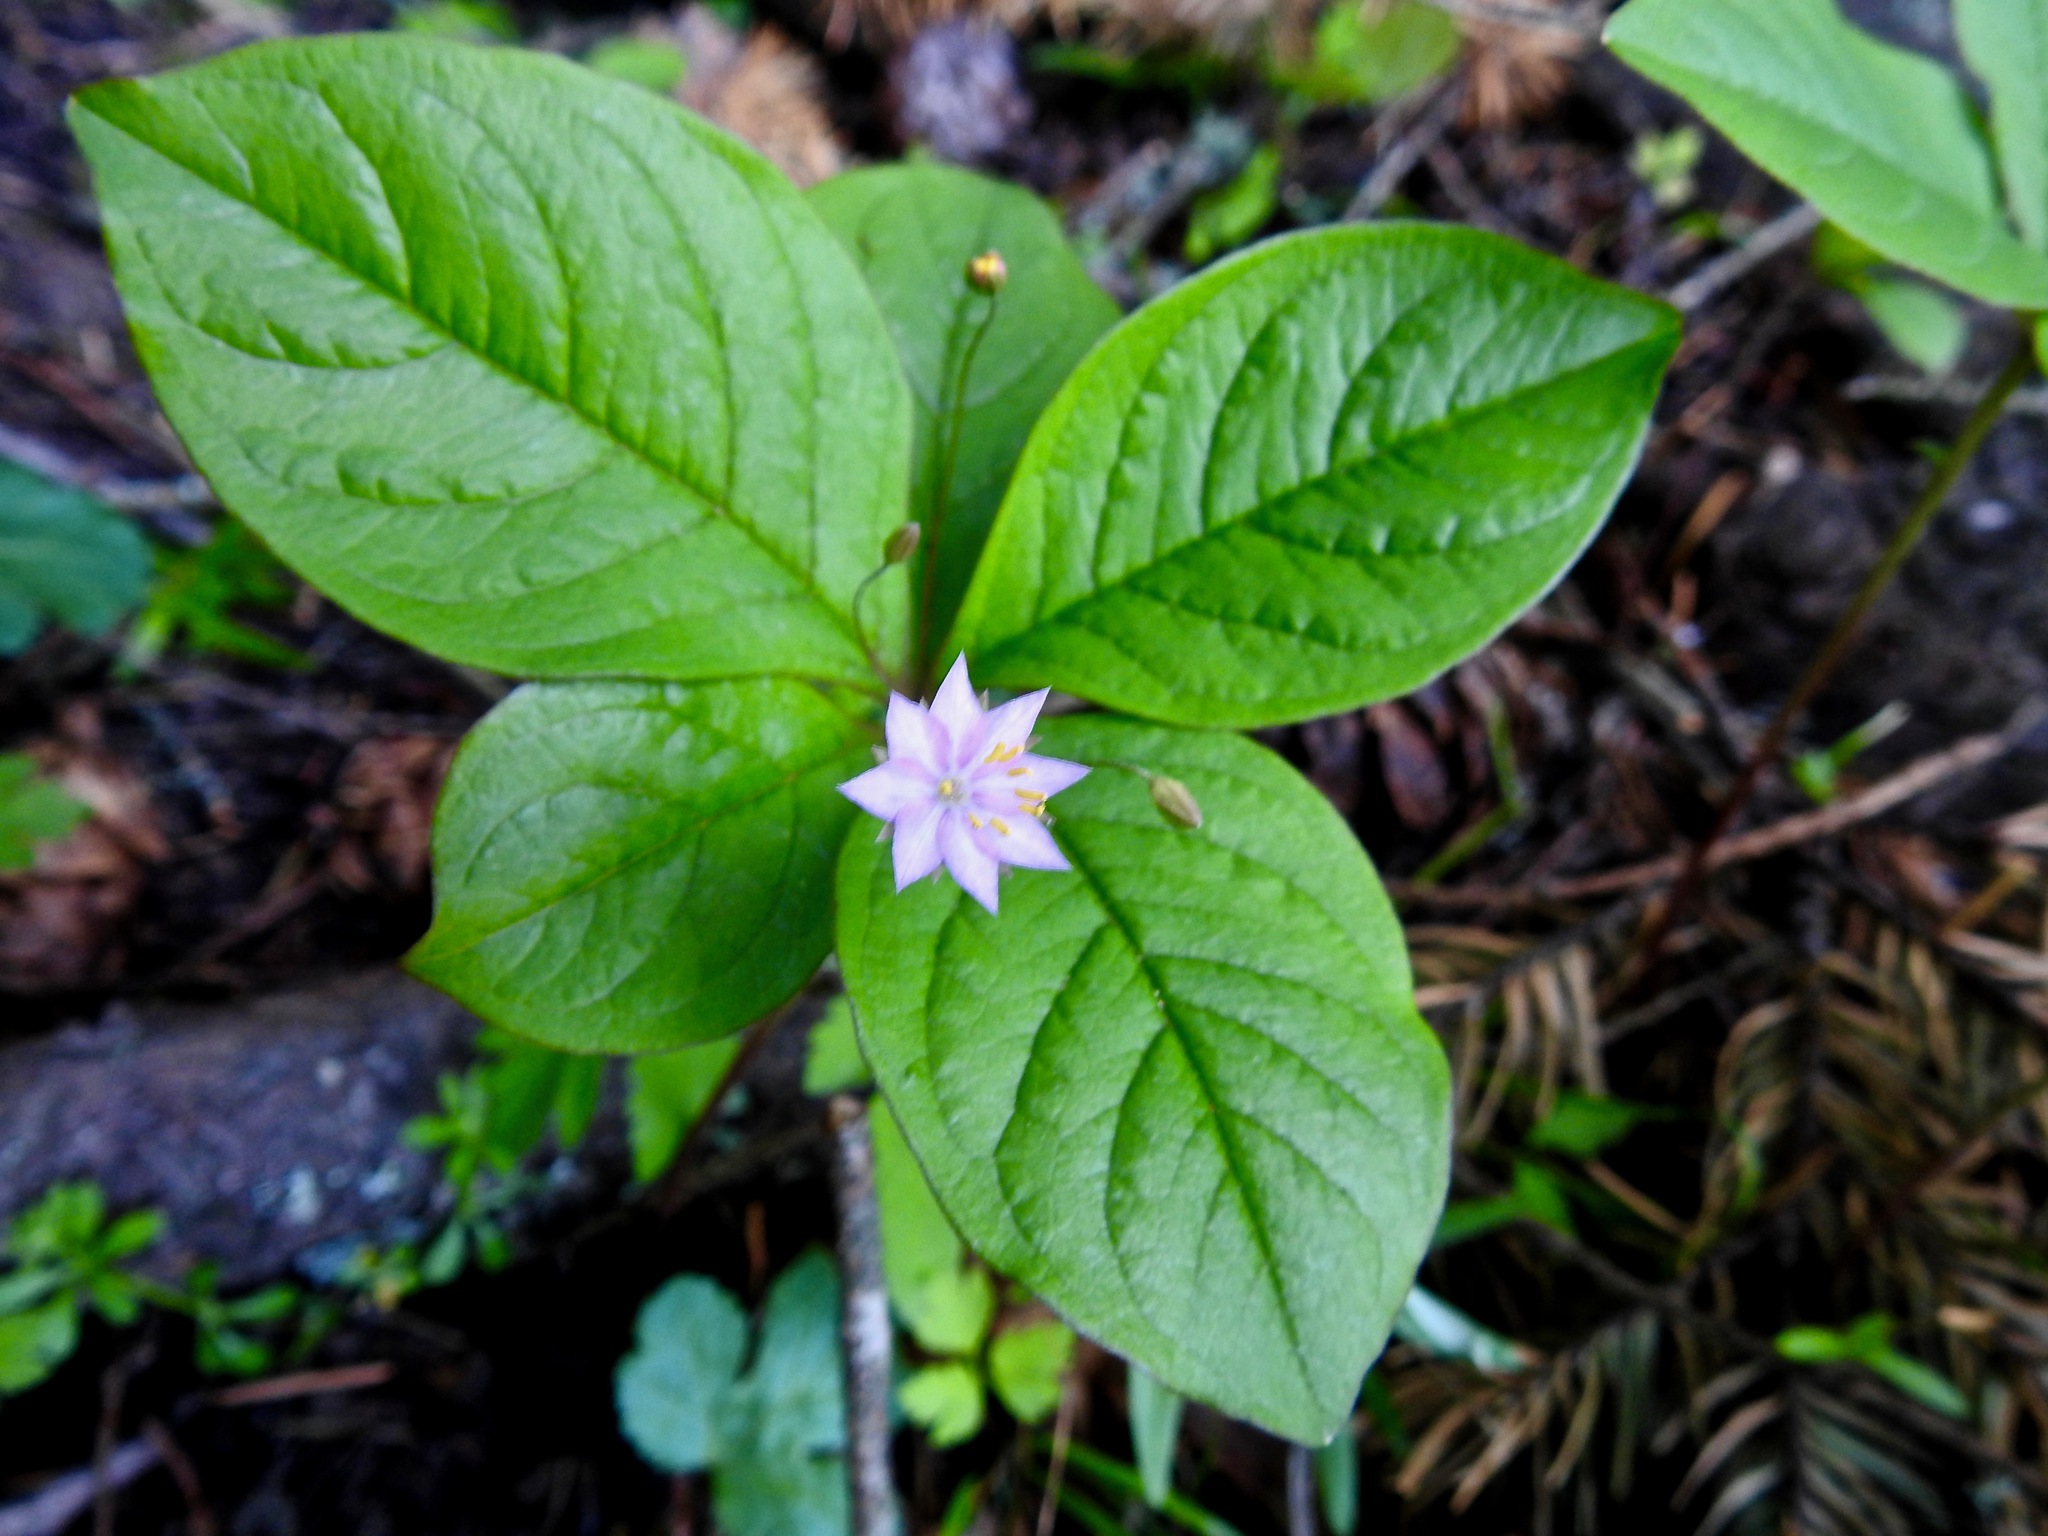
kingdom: Plantae
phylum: Tracheophyta
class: Magnoliopsida
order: Ericales
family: Primulaceae
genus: Lysimachia
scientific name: Lysimachia latifolia
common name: Pacific starflower
